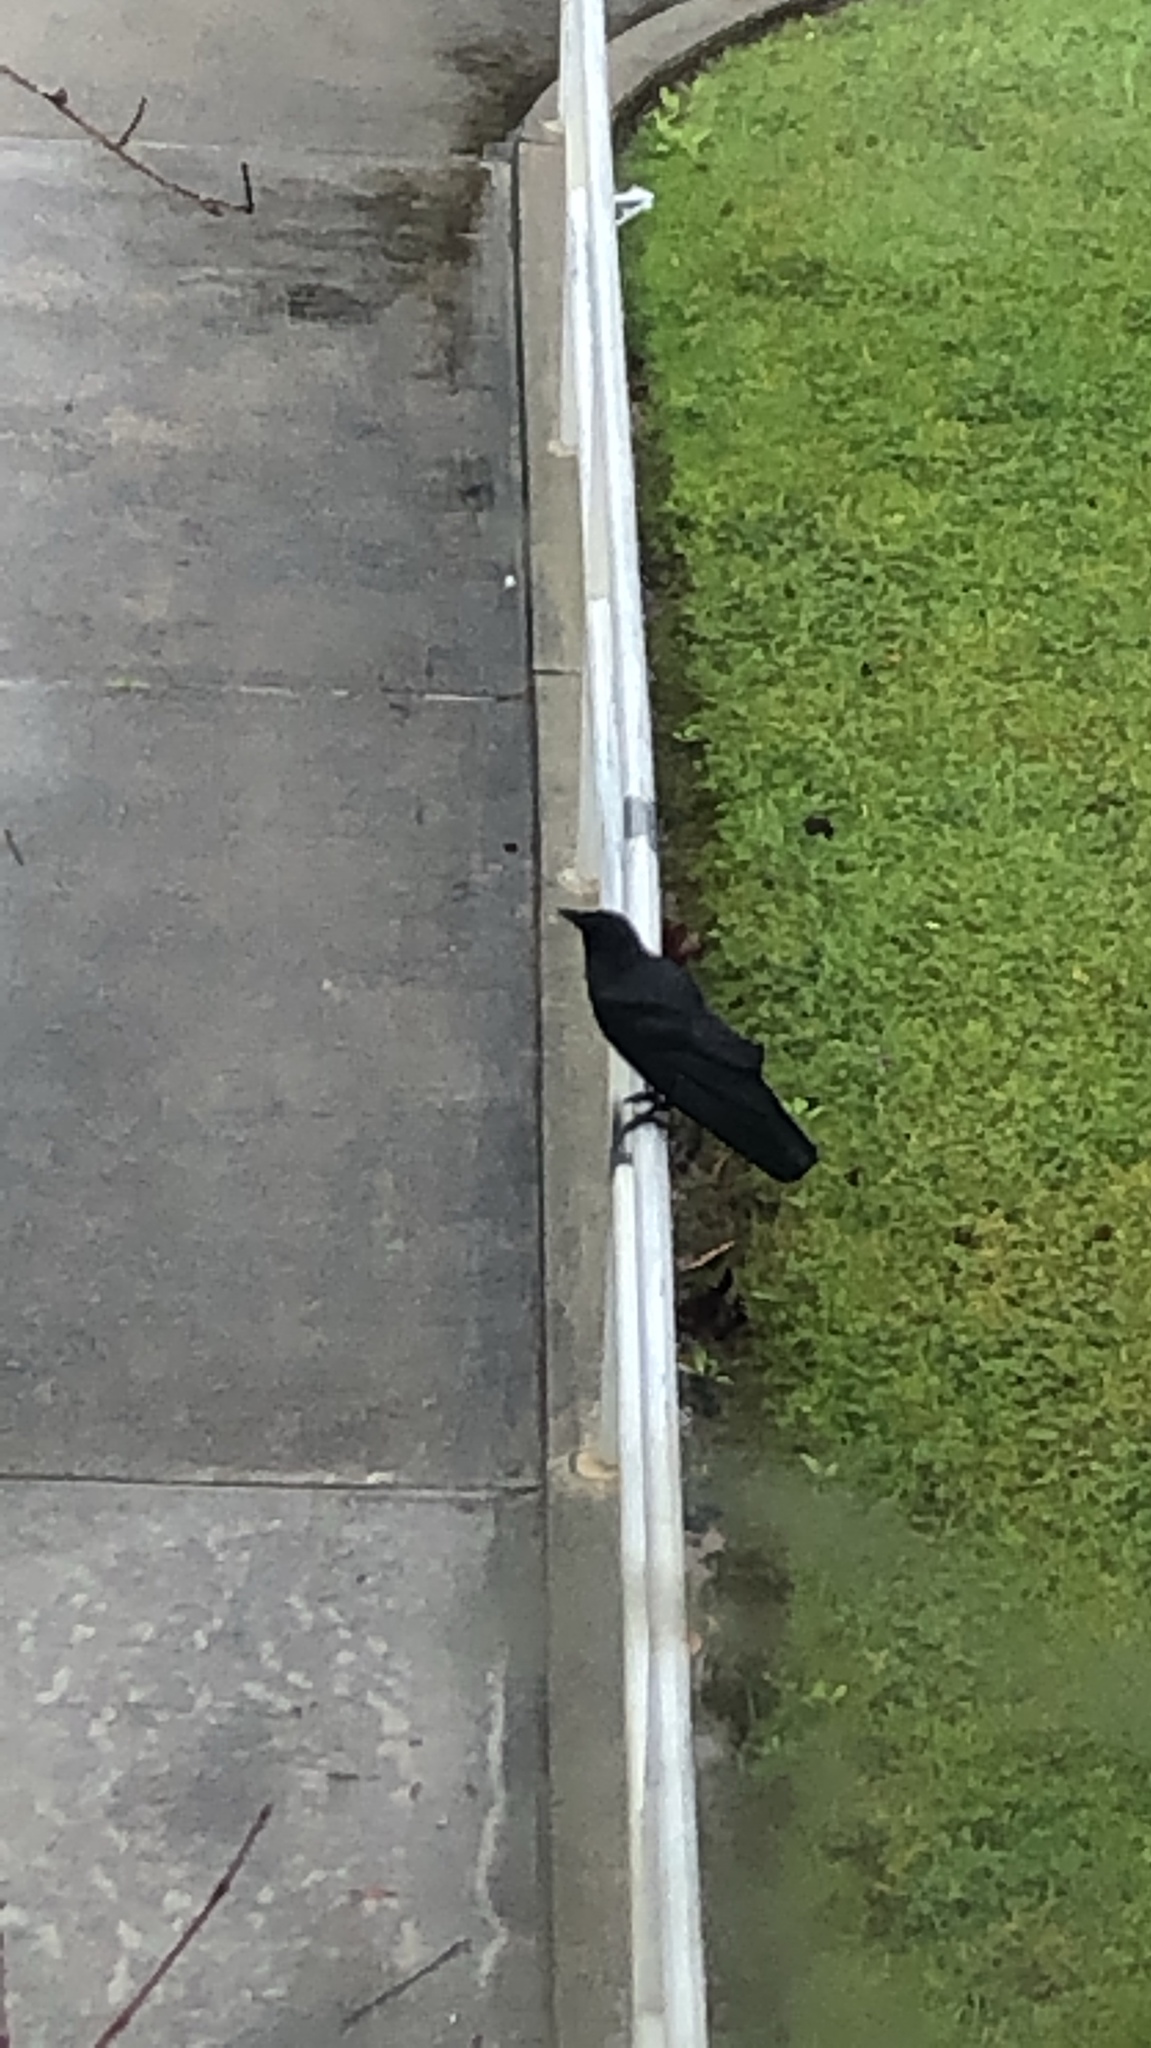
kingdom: Animalia
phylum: Chordata
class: Aves
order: Passeriformes
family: Corvidae
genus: Corvus
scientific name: Corvus brachyrhynchos
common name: American crow
